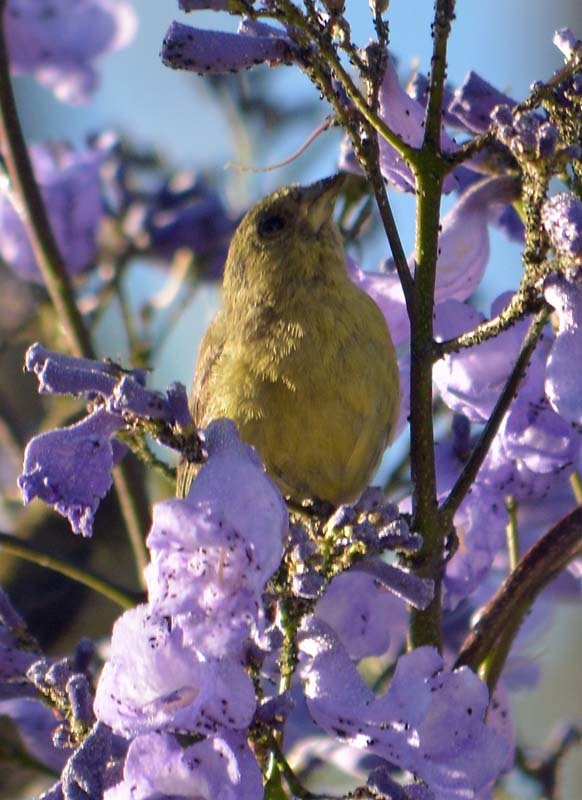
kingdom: Animalia
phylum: Chordata
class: Aves
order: Passeriformes
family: Fringillidae
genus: Spinus
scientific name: Spinus psaltria
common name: Lesser goldfinch
